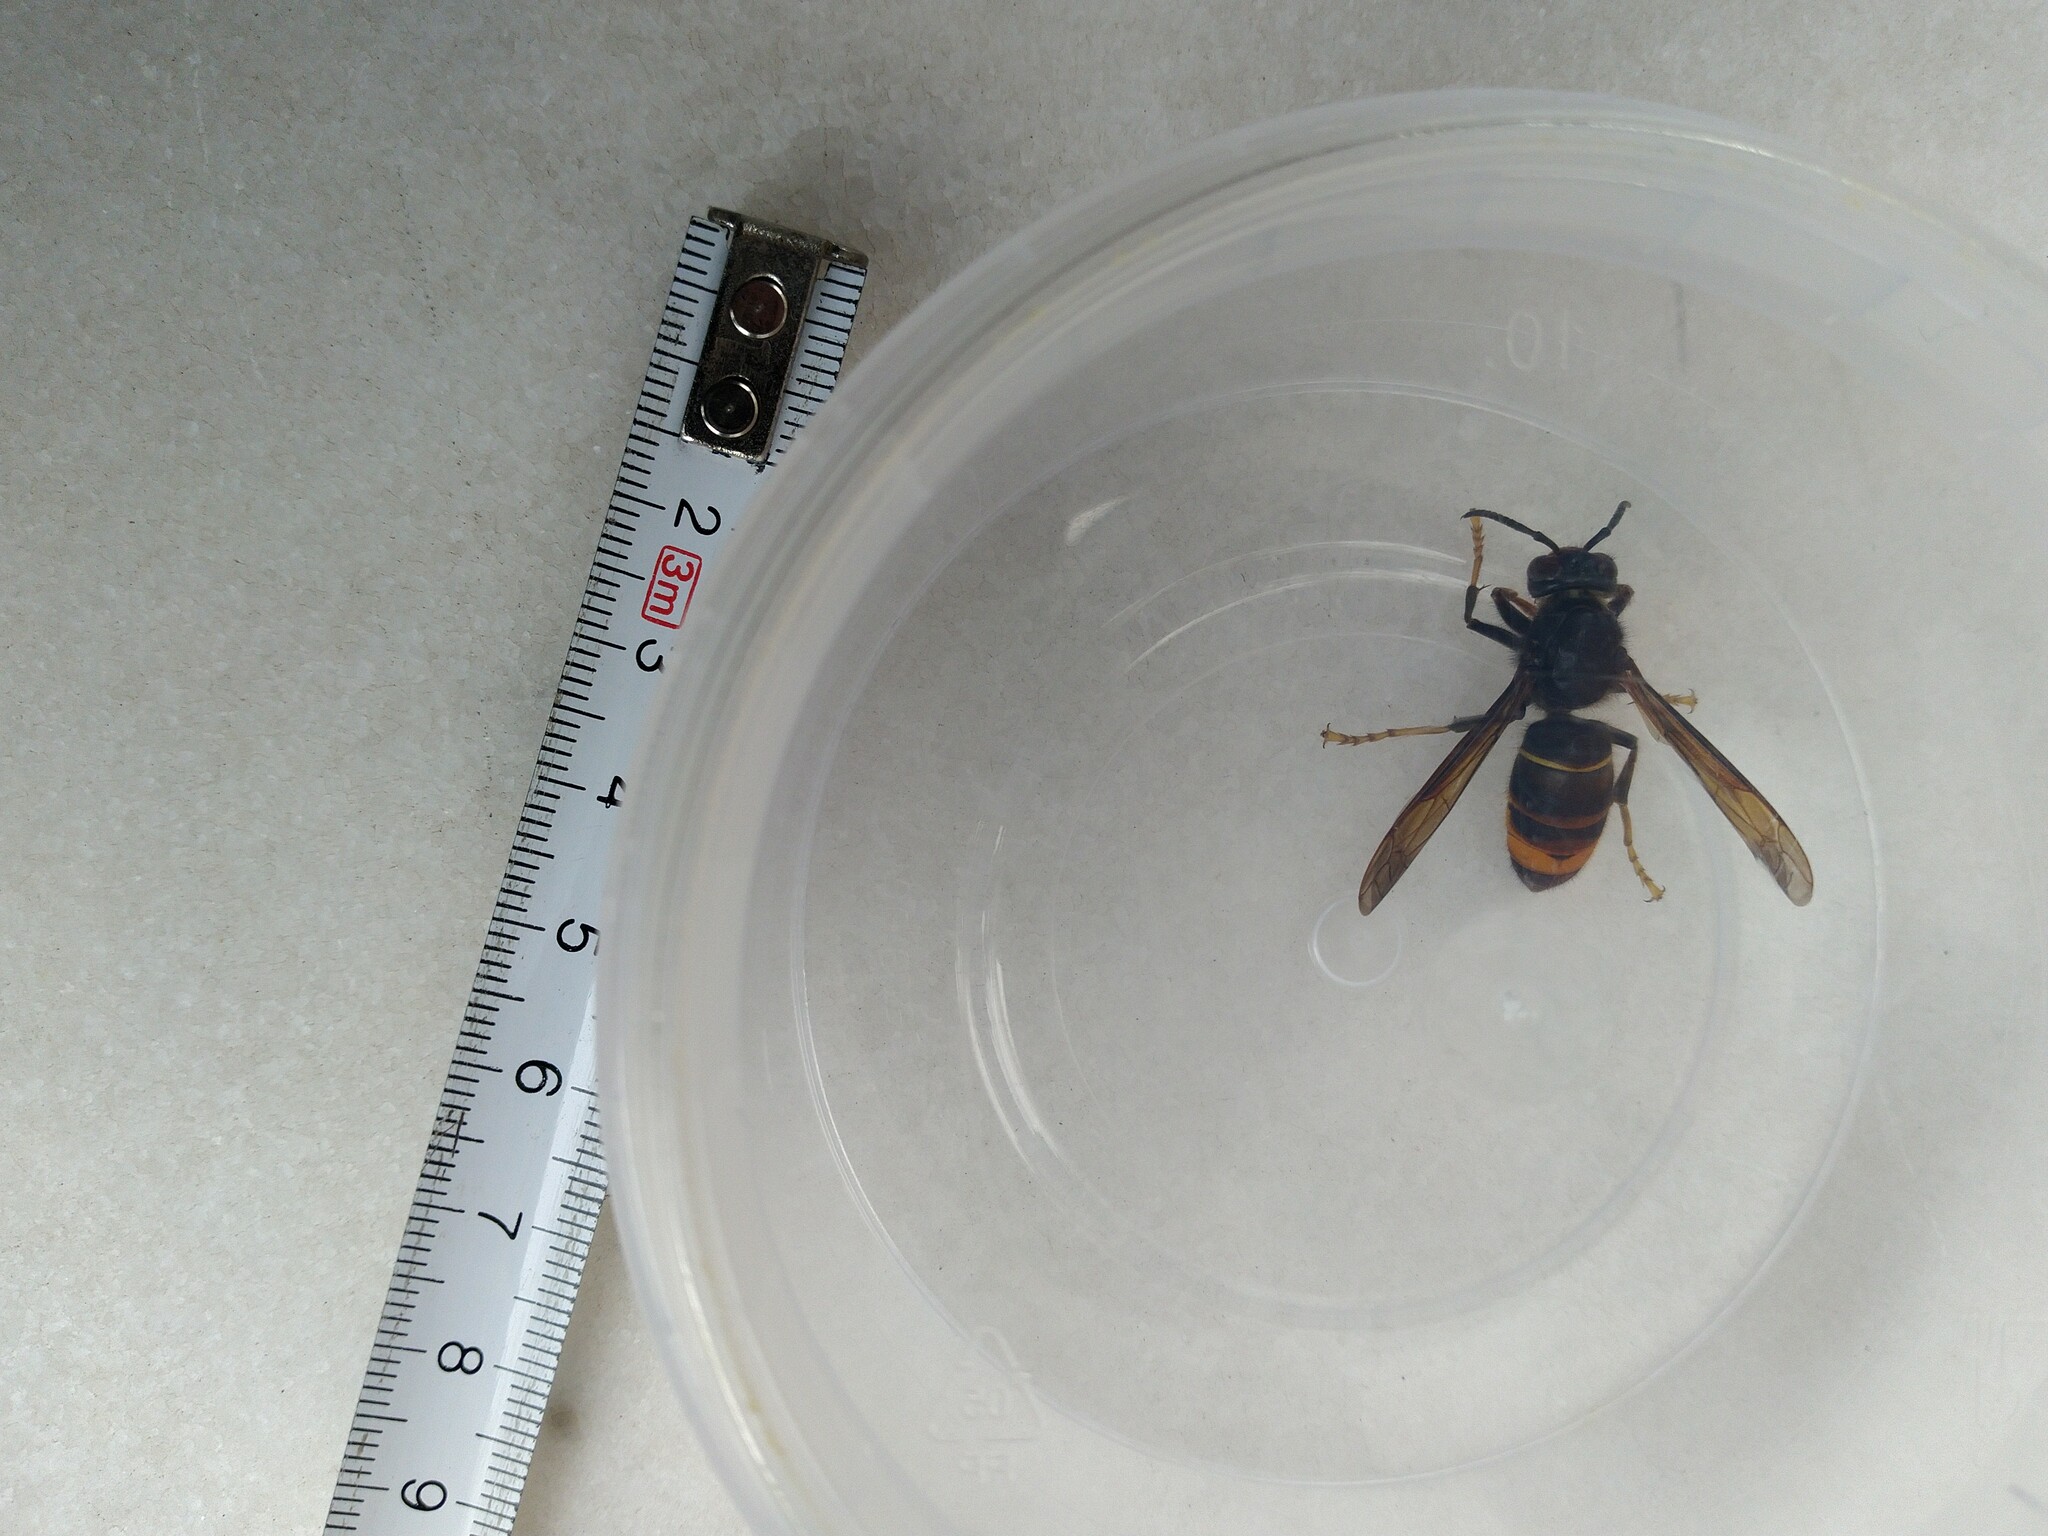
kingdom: Animalia
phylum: Arthropoda
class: Insecta
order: Hymenoptera
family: Vespidae
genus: Vespa
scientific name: Vespa velutina
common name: Asian hornet
